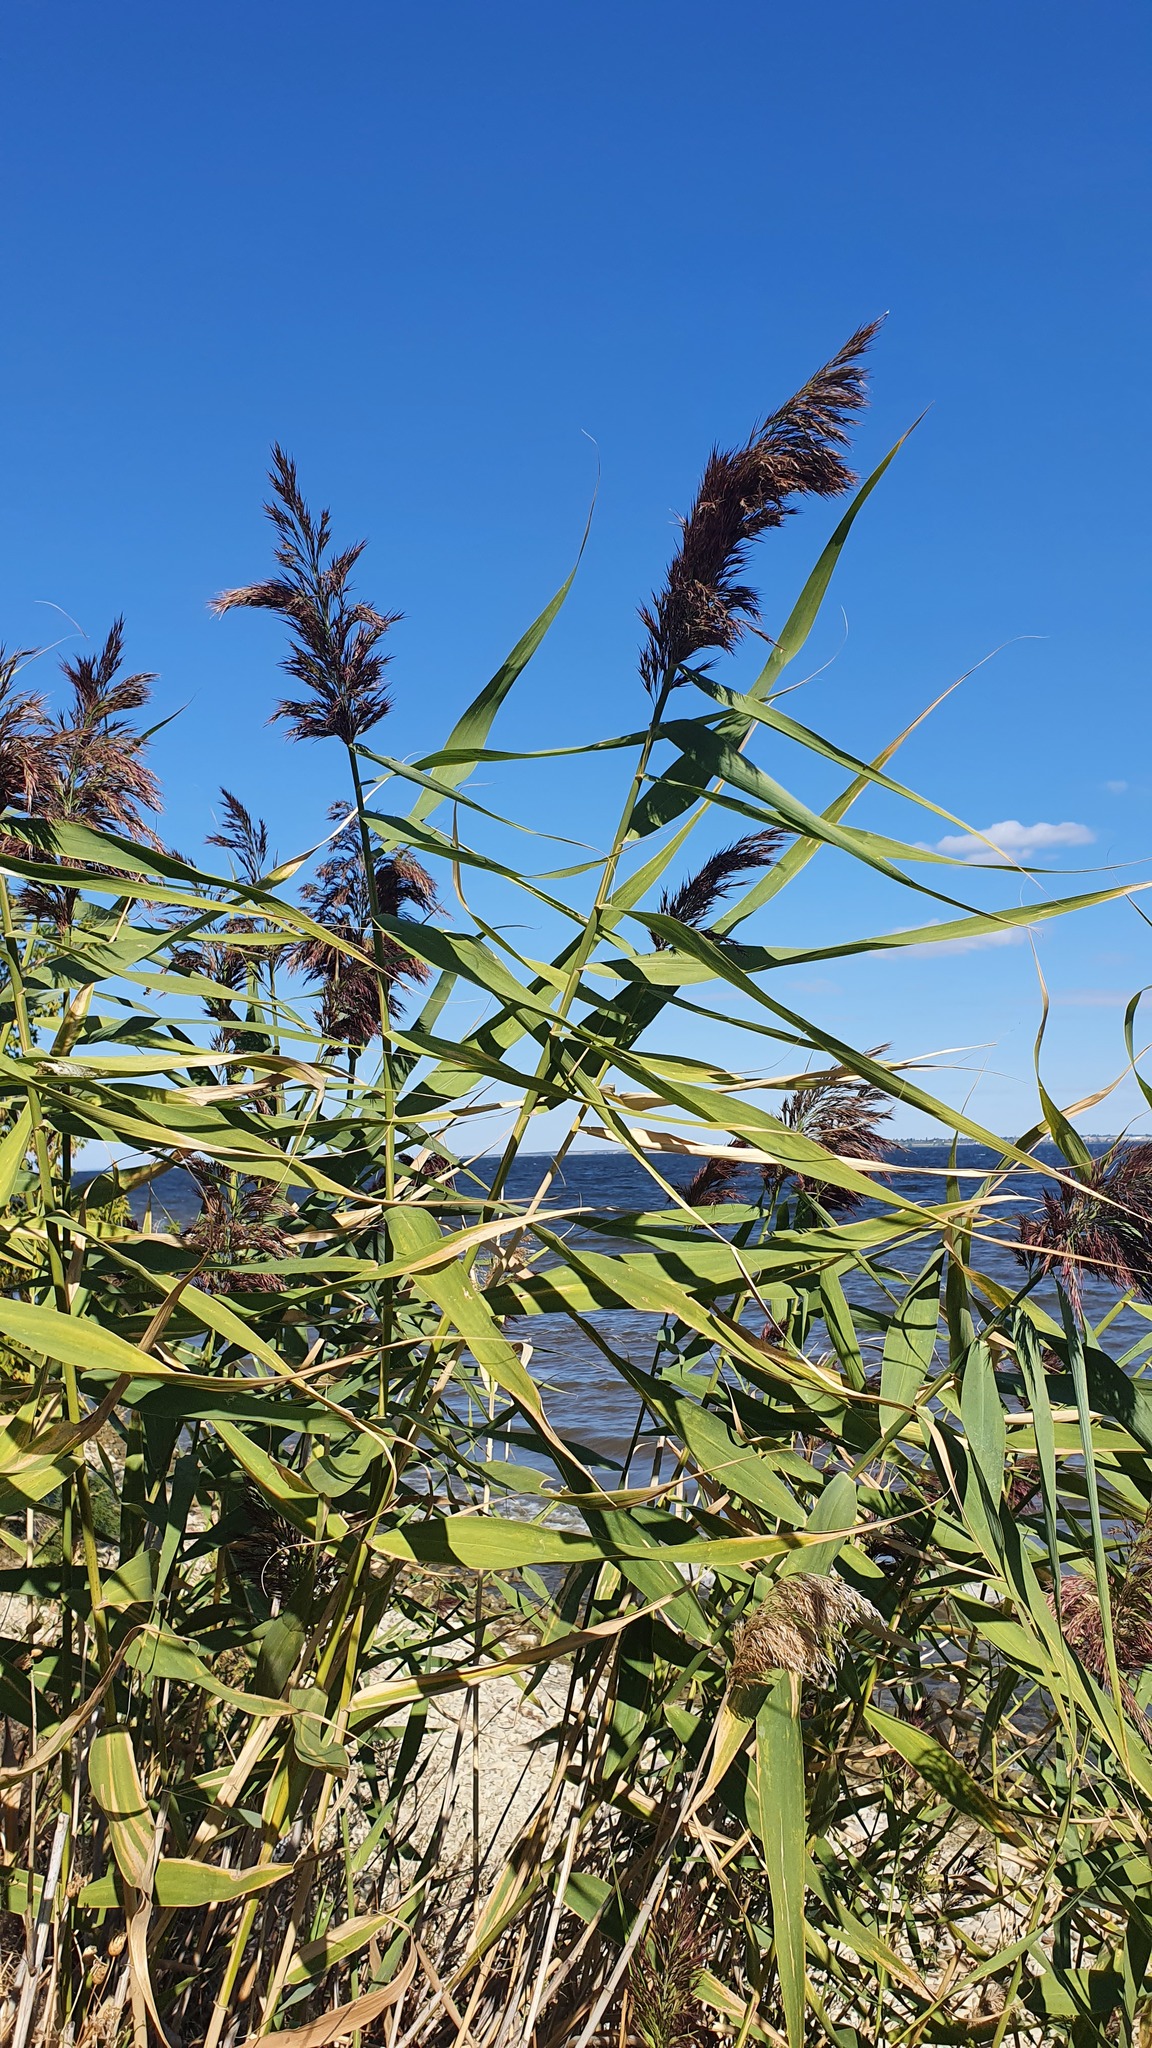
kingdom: Plantae
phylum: Tracheophyta
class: Liliopsida
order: Poales
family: Poaceae
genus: Phragmites
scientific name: Phragmites australis
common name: Common reed
